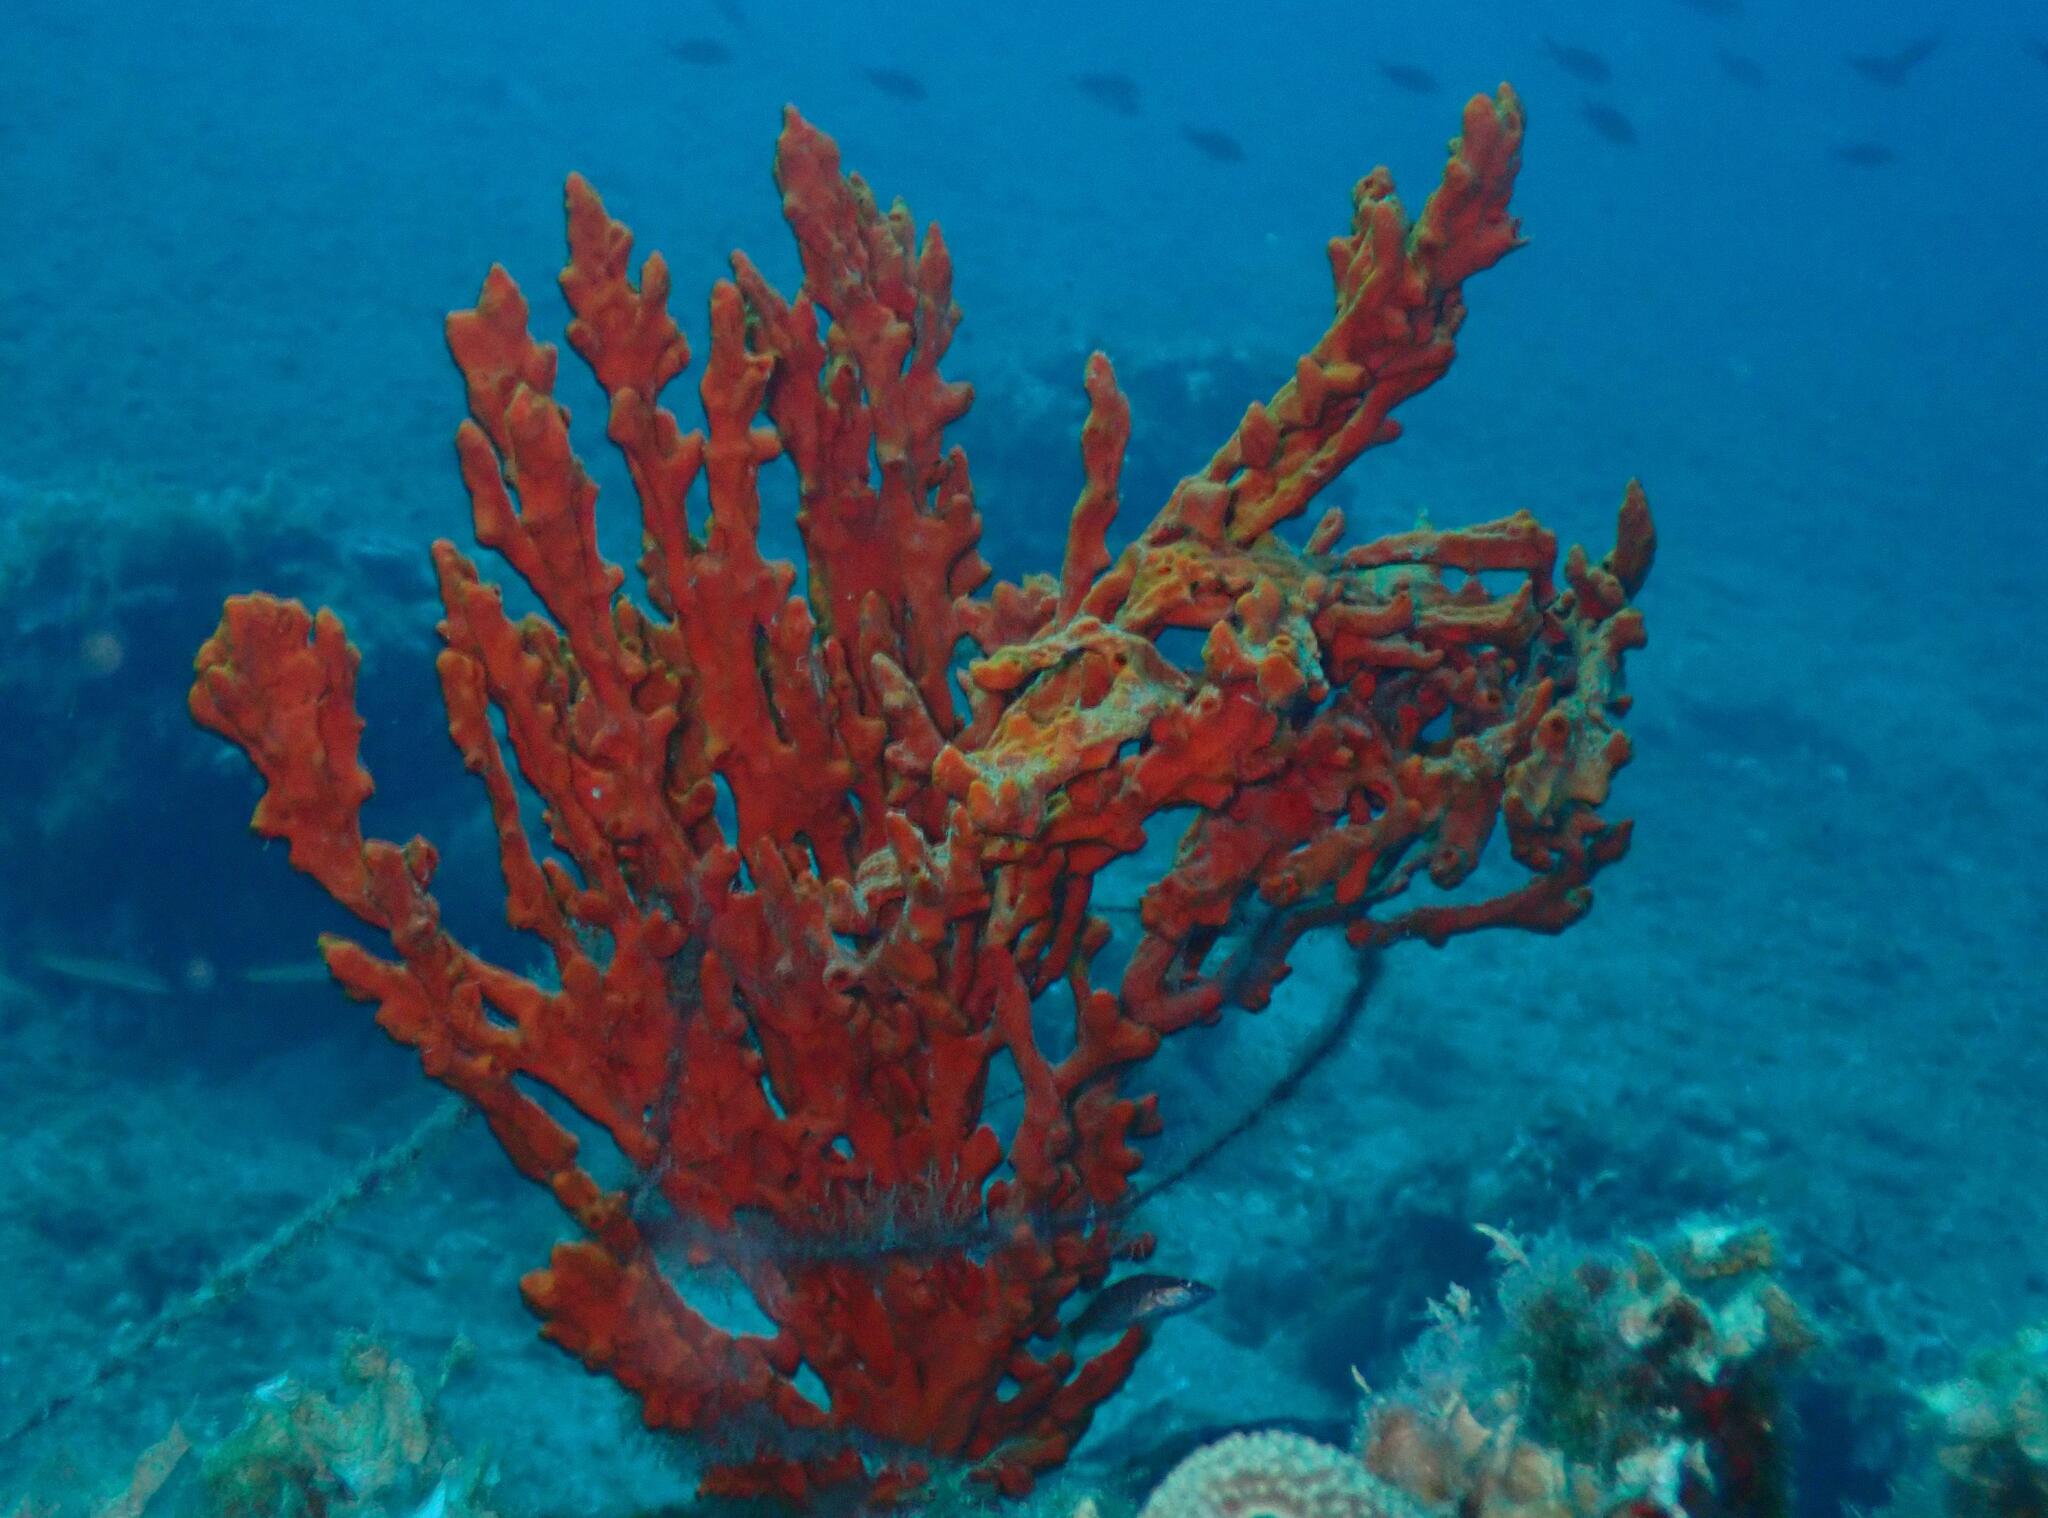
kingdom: Animalia
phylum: Porifera
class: Demospongiae
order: Axinellida
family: Axinellidae
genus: Axinella
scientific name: Axinella cannabina
